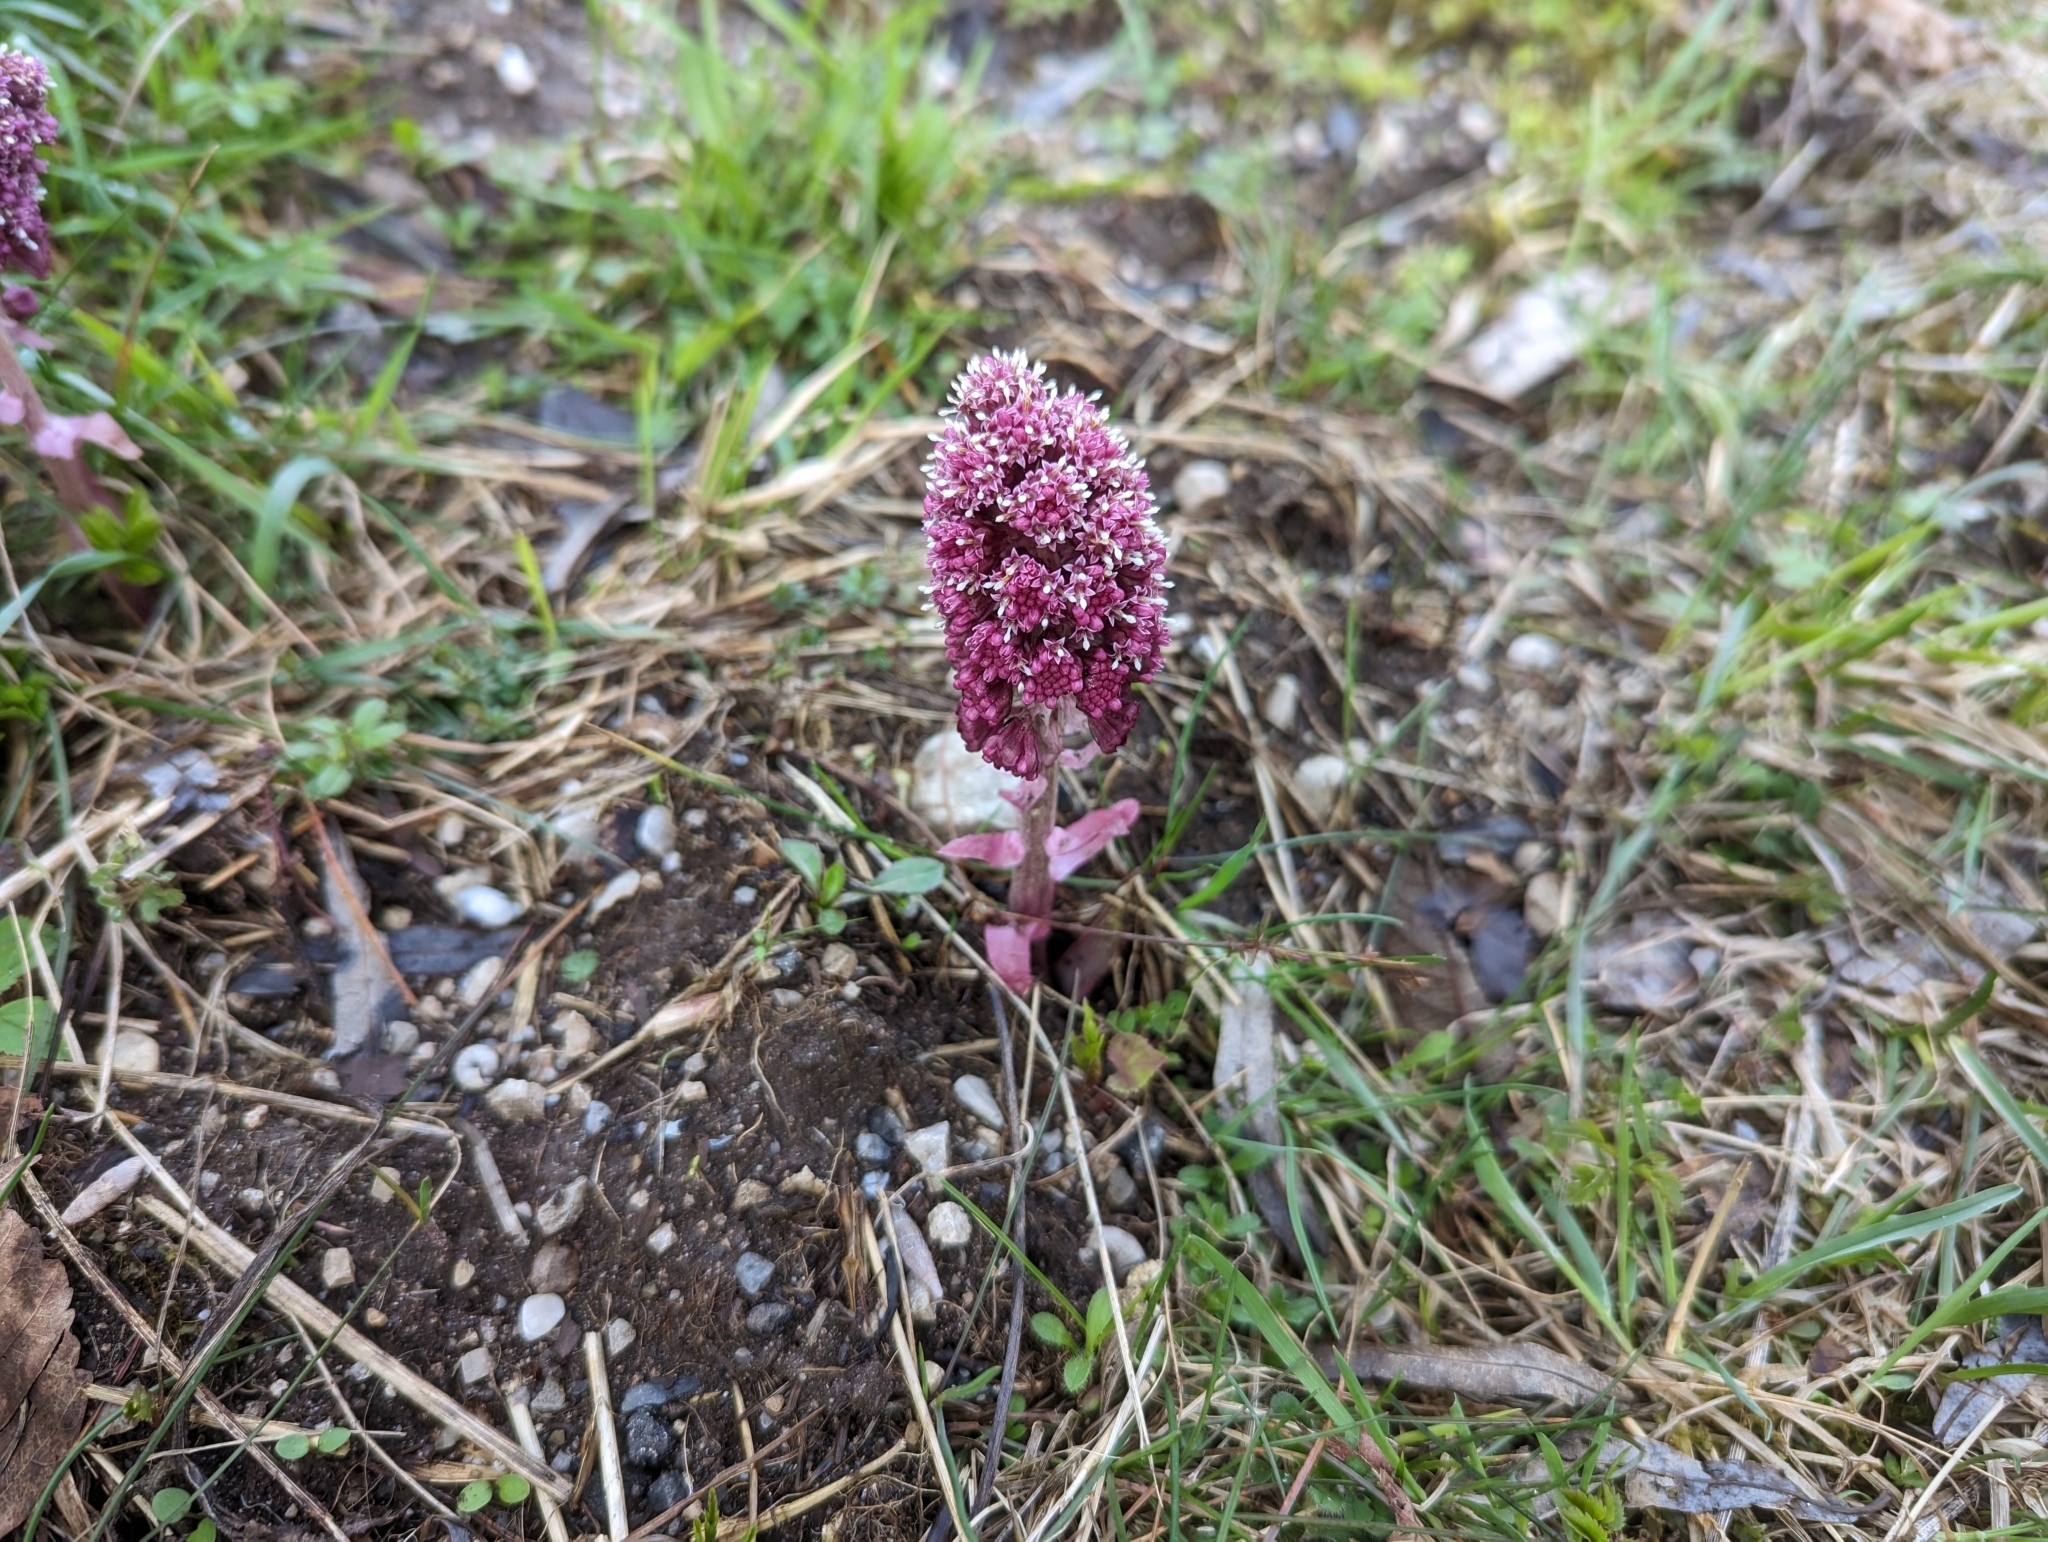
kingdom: Plantae
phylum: Tracheophyta
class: Magnoliopsida
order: Asterales
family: Asteraceae
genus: Petasites
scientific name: Petasites hybridus
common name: Butterbur
